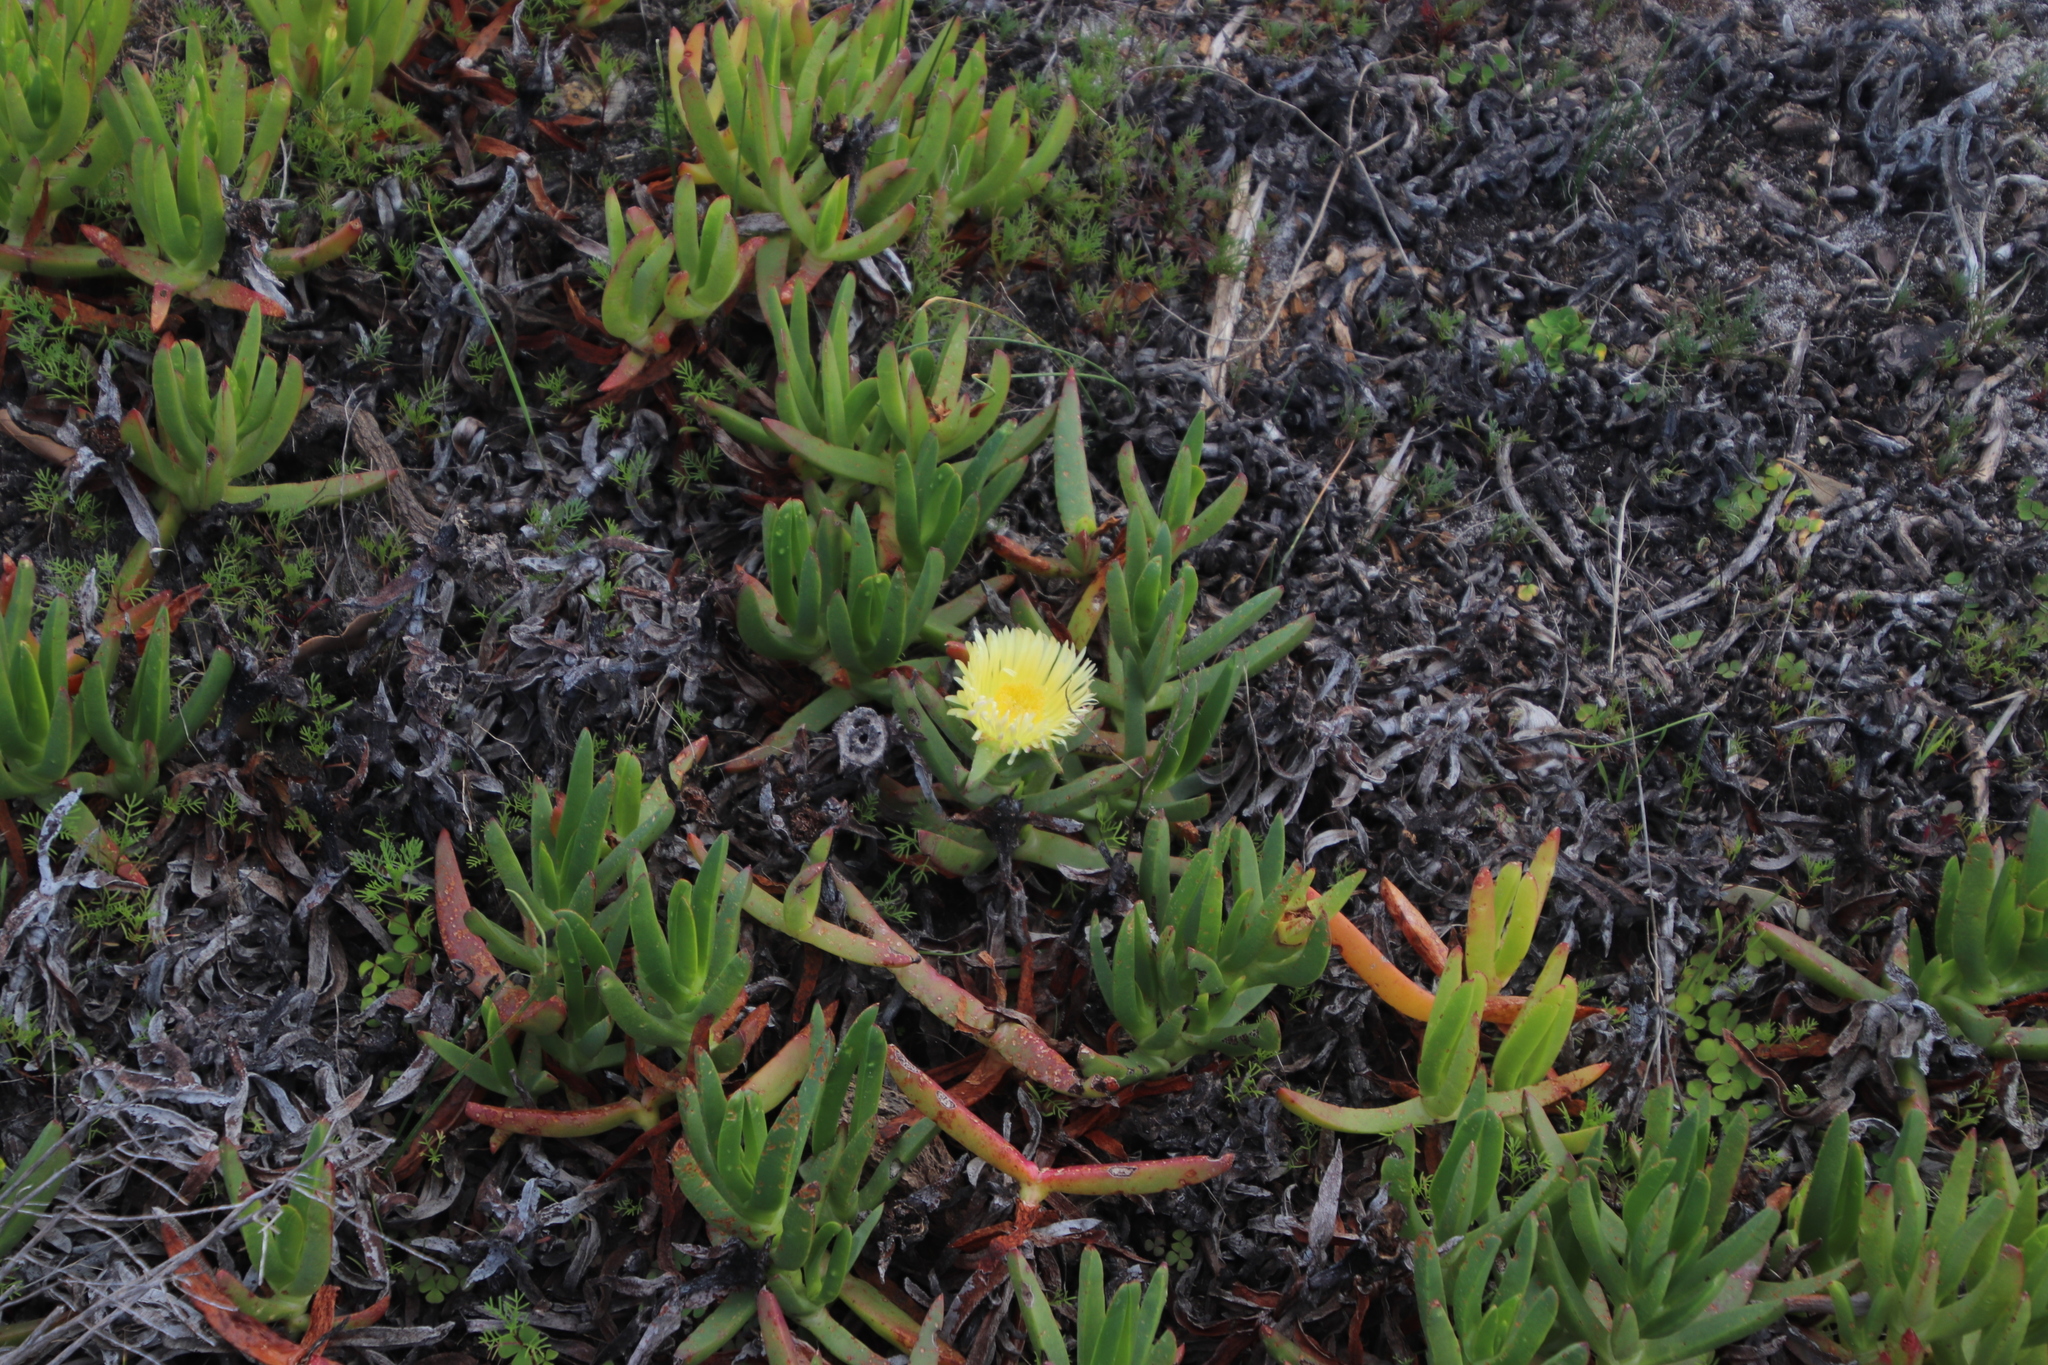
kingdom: Plantae
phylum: Tracheophyta
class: Magnoliopsida
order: Caryophyllales
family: Aizoaceae
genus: Carpobrotus
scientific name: Carpobrotus edulis
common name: Hottentot-fig
